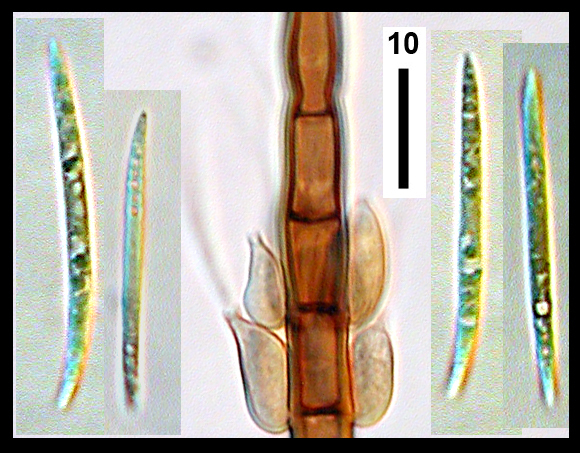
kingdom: Fungi
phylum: Ascomycota
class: Sordariomycetes
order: Chaetosphaeriales
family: Chaetosphaeriaceae
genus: Zanclospora
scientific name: Zanclospora novae-zelandiae
